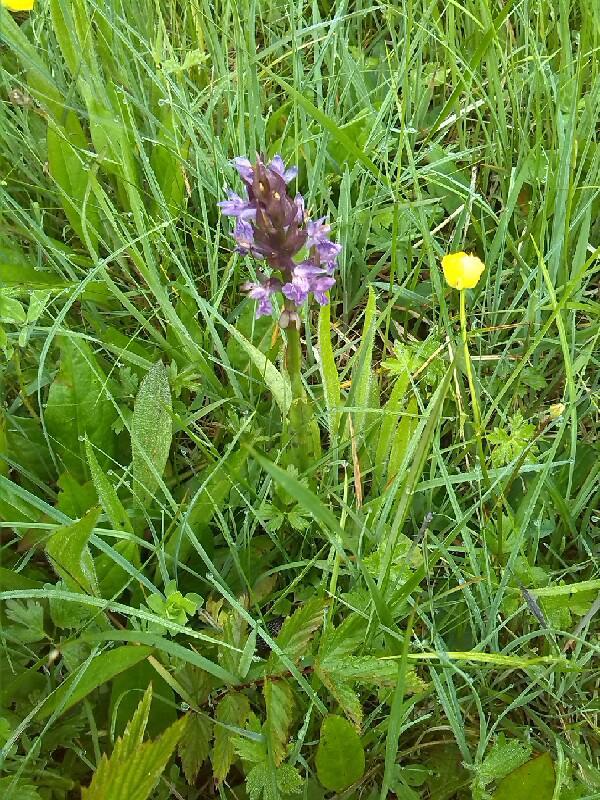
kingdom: Plantae
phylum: Tracheophyta
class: Liliopsida
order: Asparagales
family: Orchidaceae
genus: Dactylorhiza
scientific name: Dactylorhiza majalis
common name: Marsh orchid
